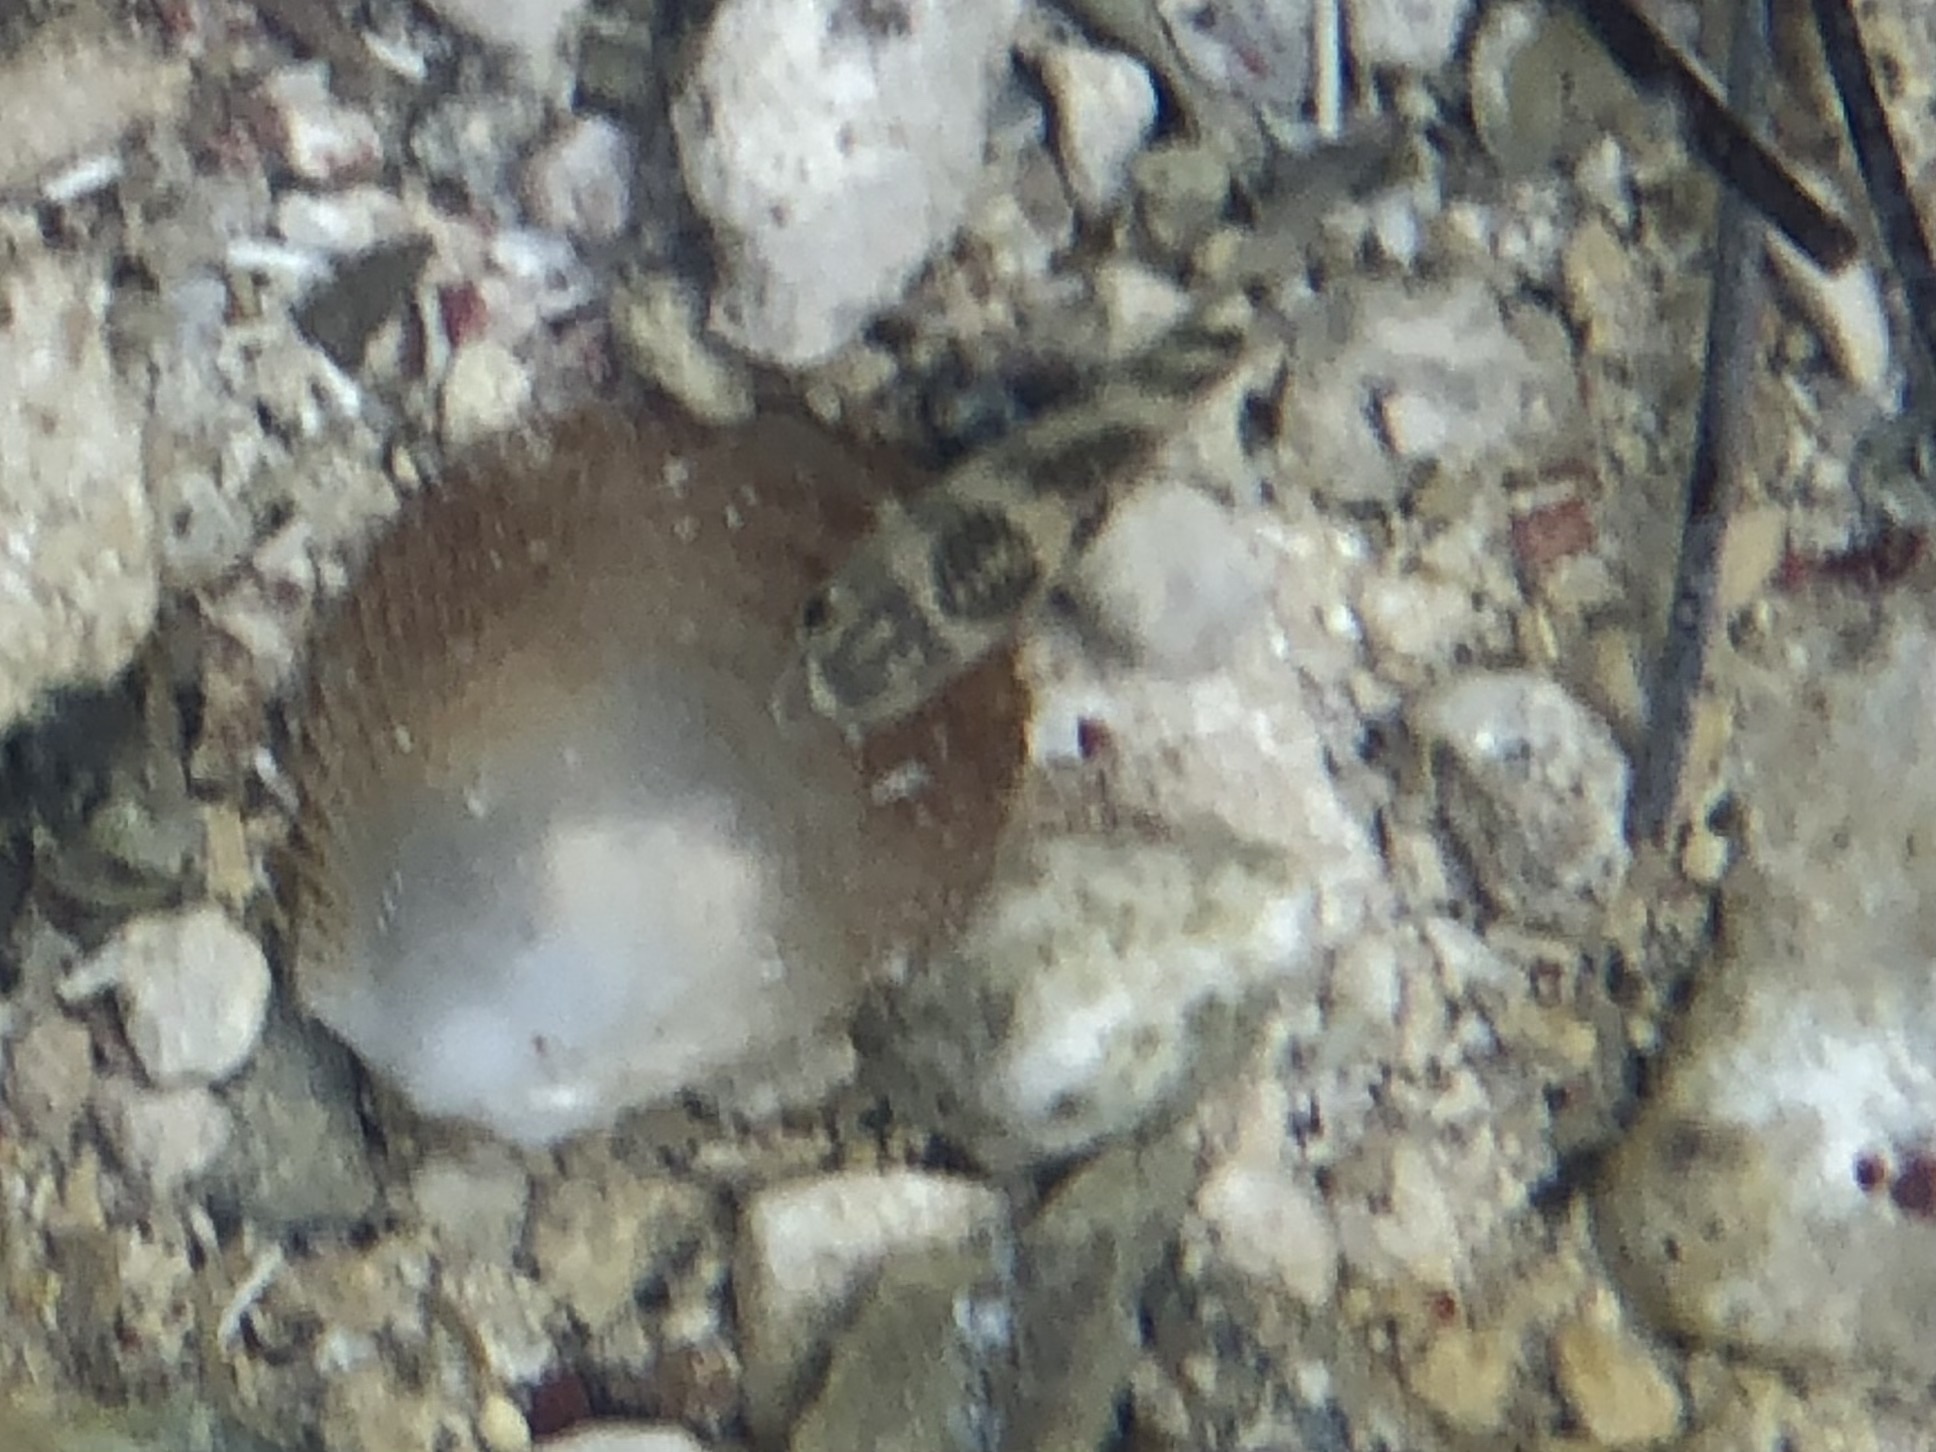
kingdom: Animalia
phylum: Chordata
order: Perciformes
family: Pomacentridae
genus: Abudefduf
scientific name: Abudefduf taurus
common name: Night sergeant
